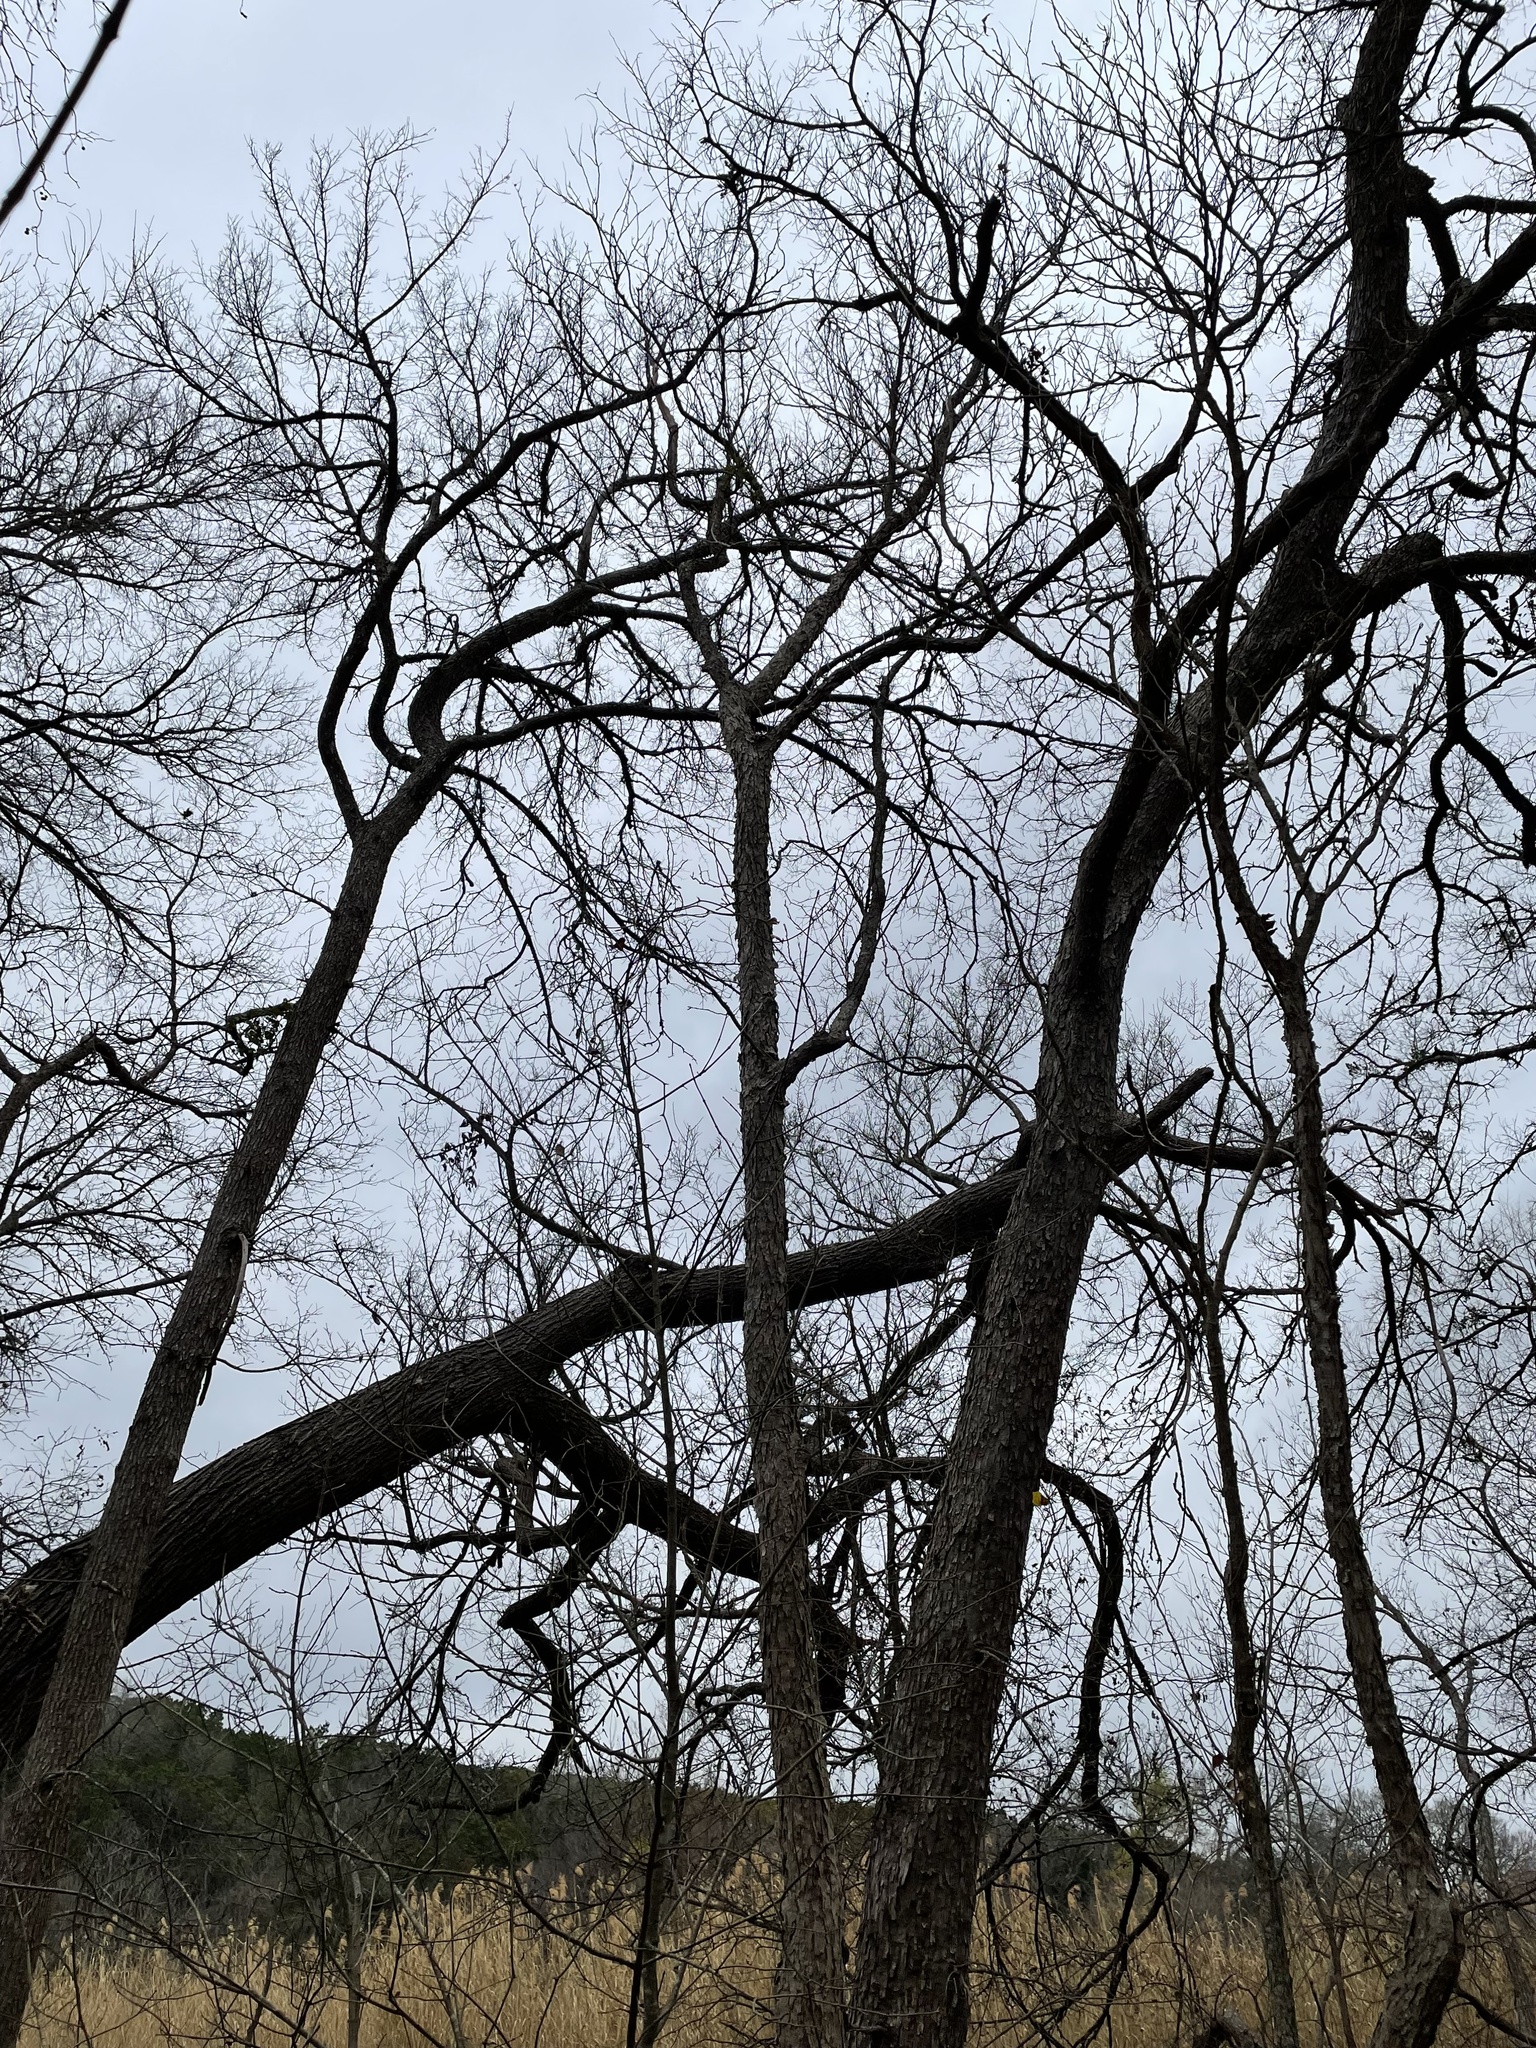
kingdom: Plantae
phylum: Tracheophyta
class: Magnoliopsida
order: Sapindales
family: Sapindaceae
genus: Sapindus
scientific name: Sapindus drummondii
